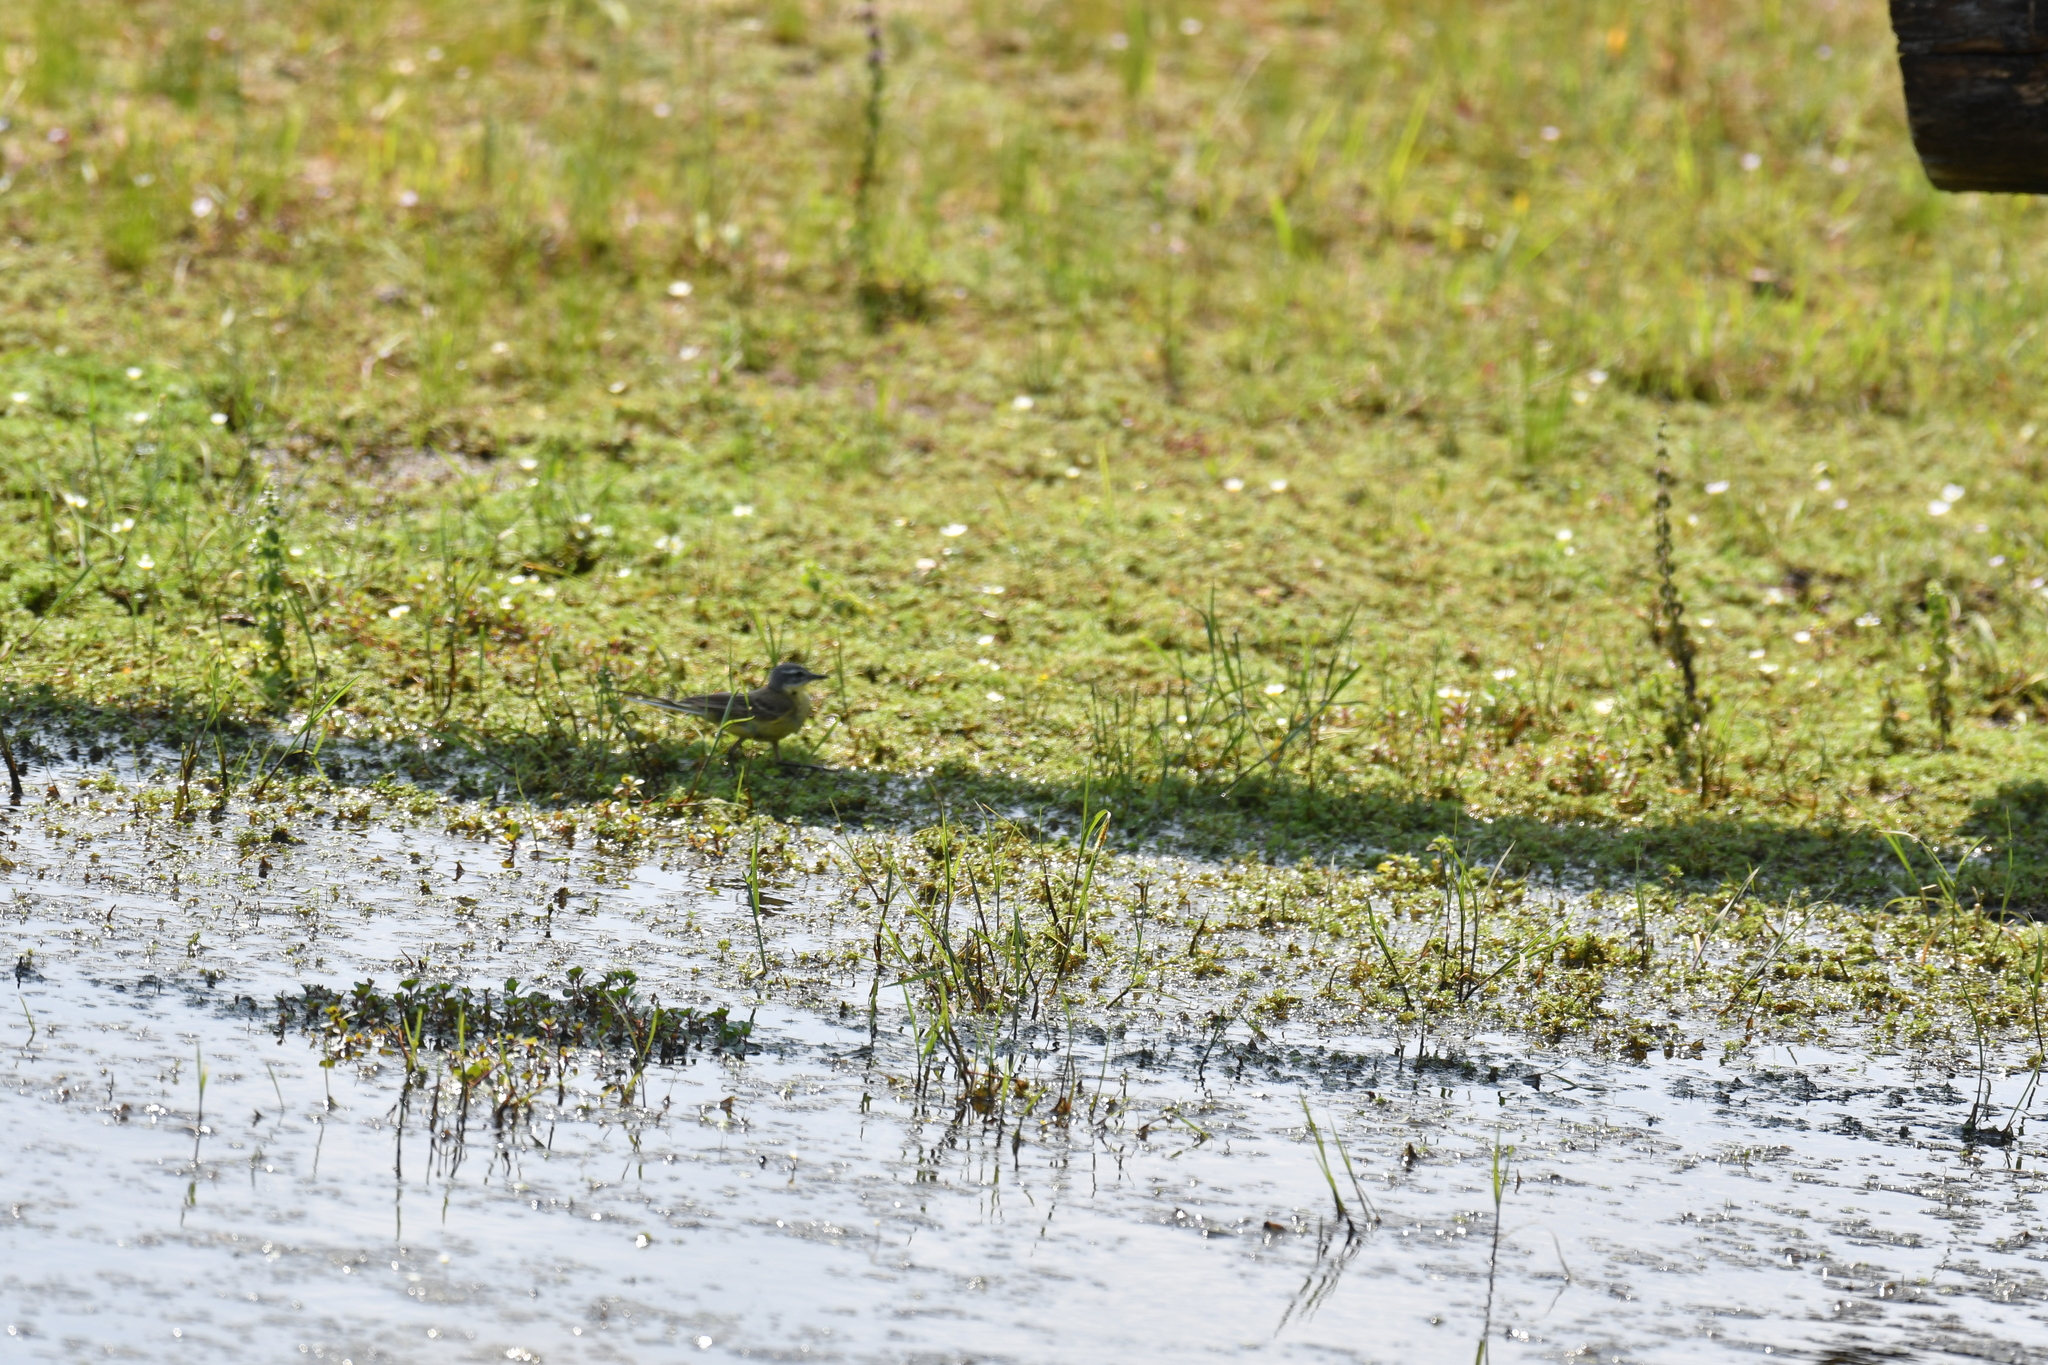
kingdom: Animalia
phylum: Chordata
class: Aves
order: Passeriformes
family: Motacillidae
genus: Motacilla
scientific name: Motacilla flava
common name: Western yellow wagtail
